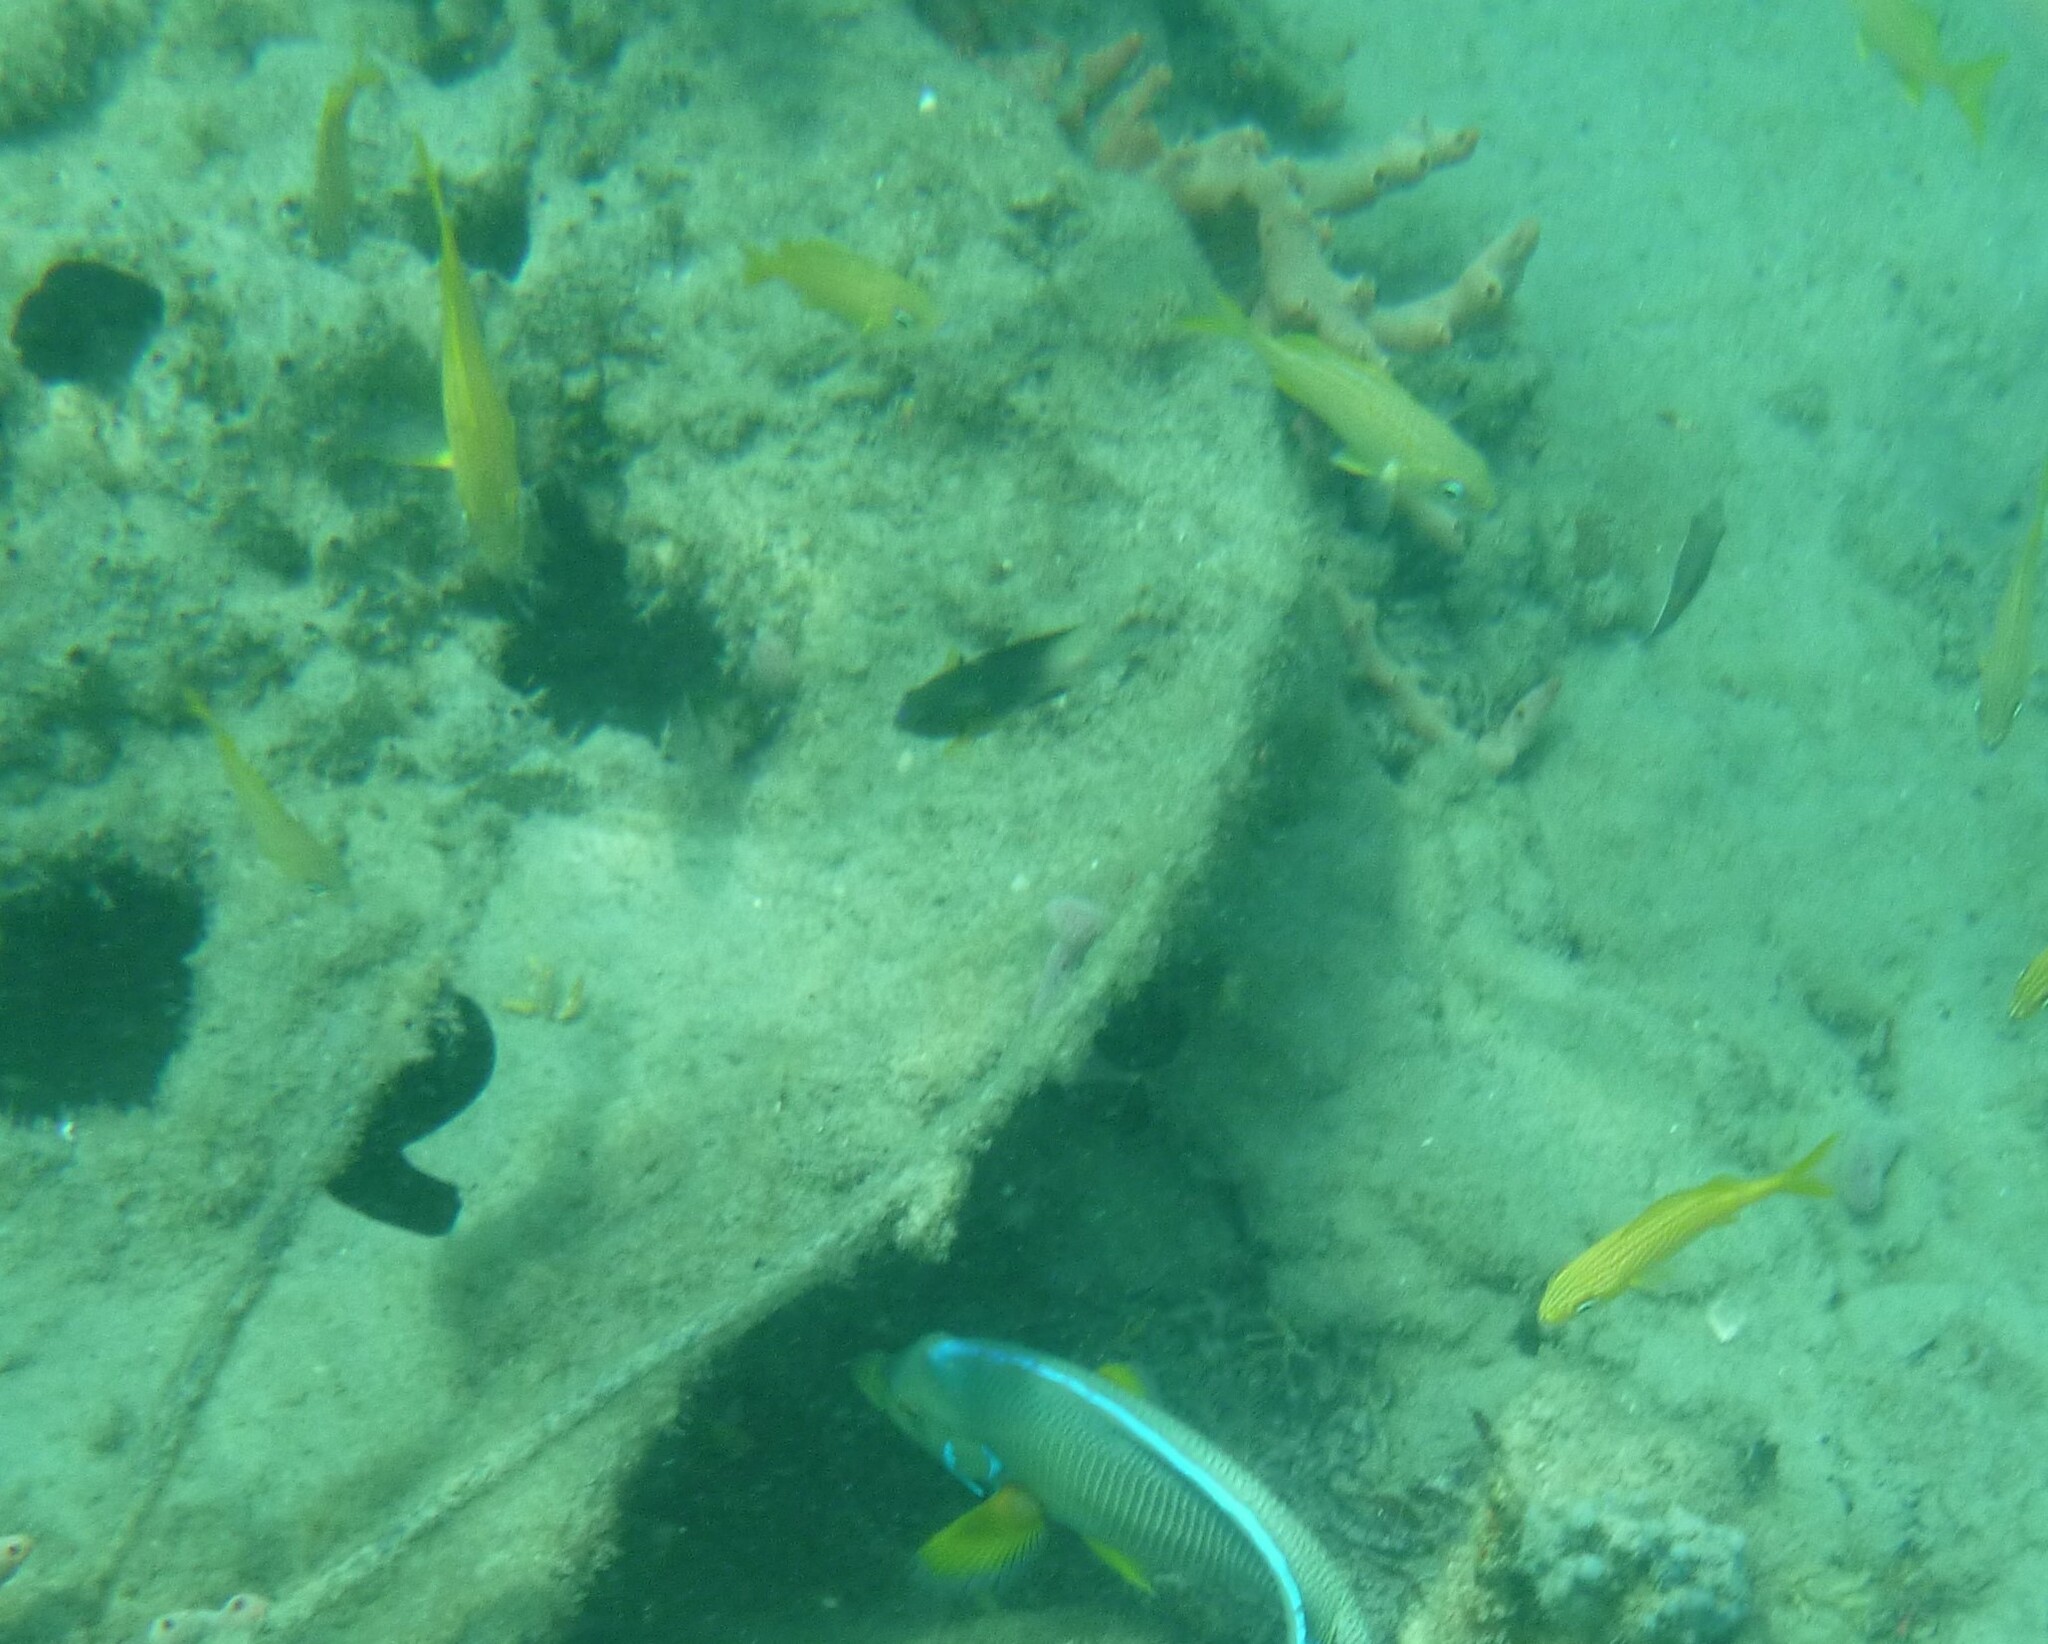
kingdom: Animalia
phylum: Chordata
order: Perciformes
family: Pomacentridae
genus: Stegastes
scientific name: Stegastes partitus
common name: Bicolor damselfish
